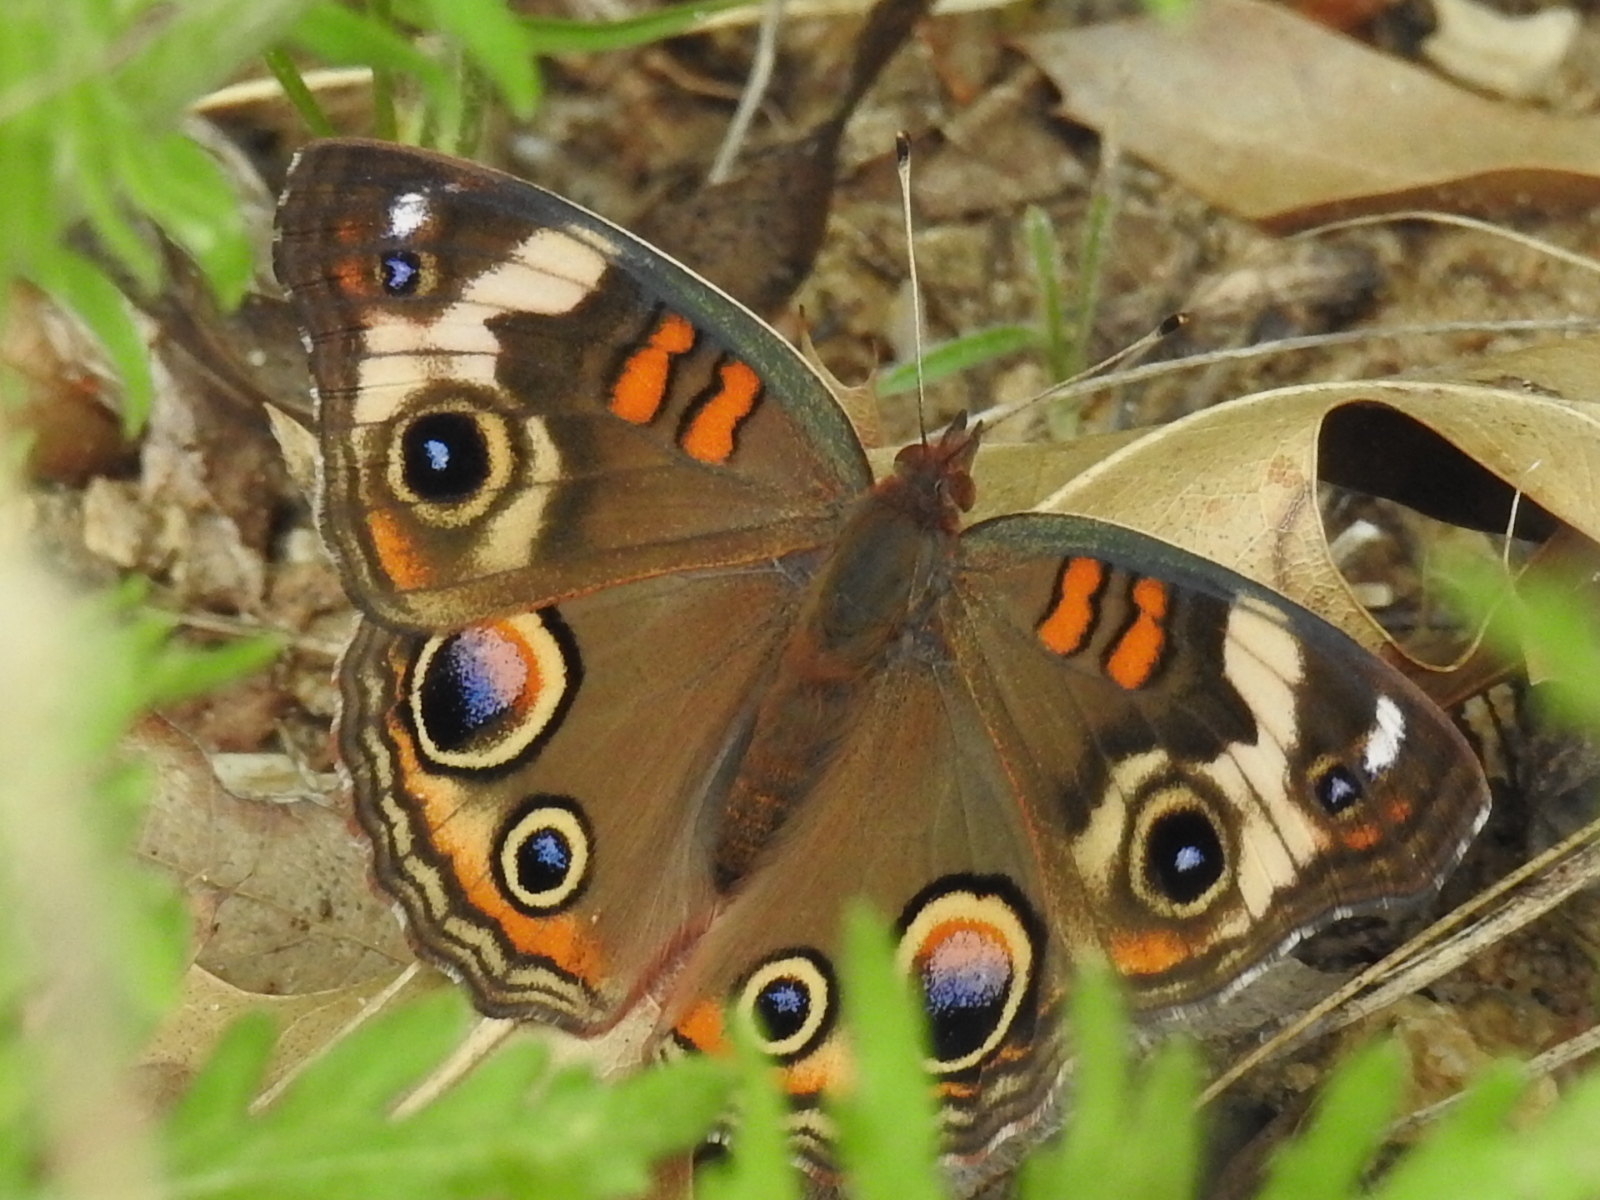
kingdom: Animalia
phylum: Arthropoda
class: Insecta
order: Lepidoptera
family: Nymphalidae
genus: Junonia
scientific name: Junonia coenia
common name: Common buckeye
